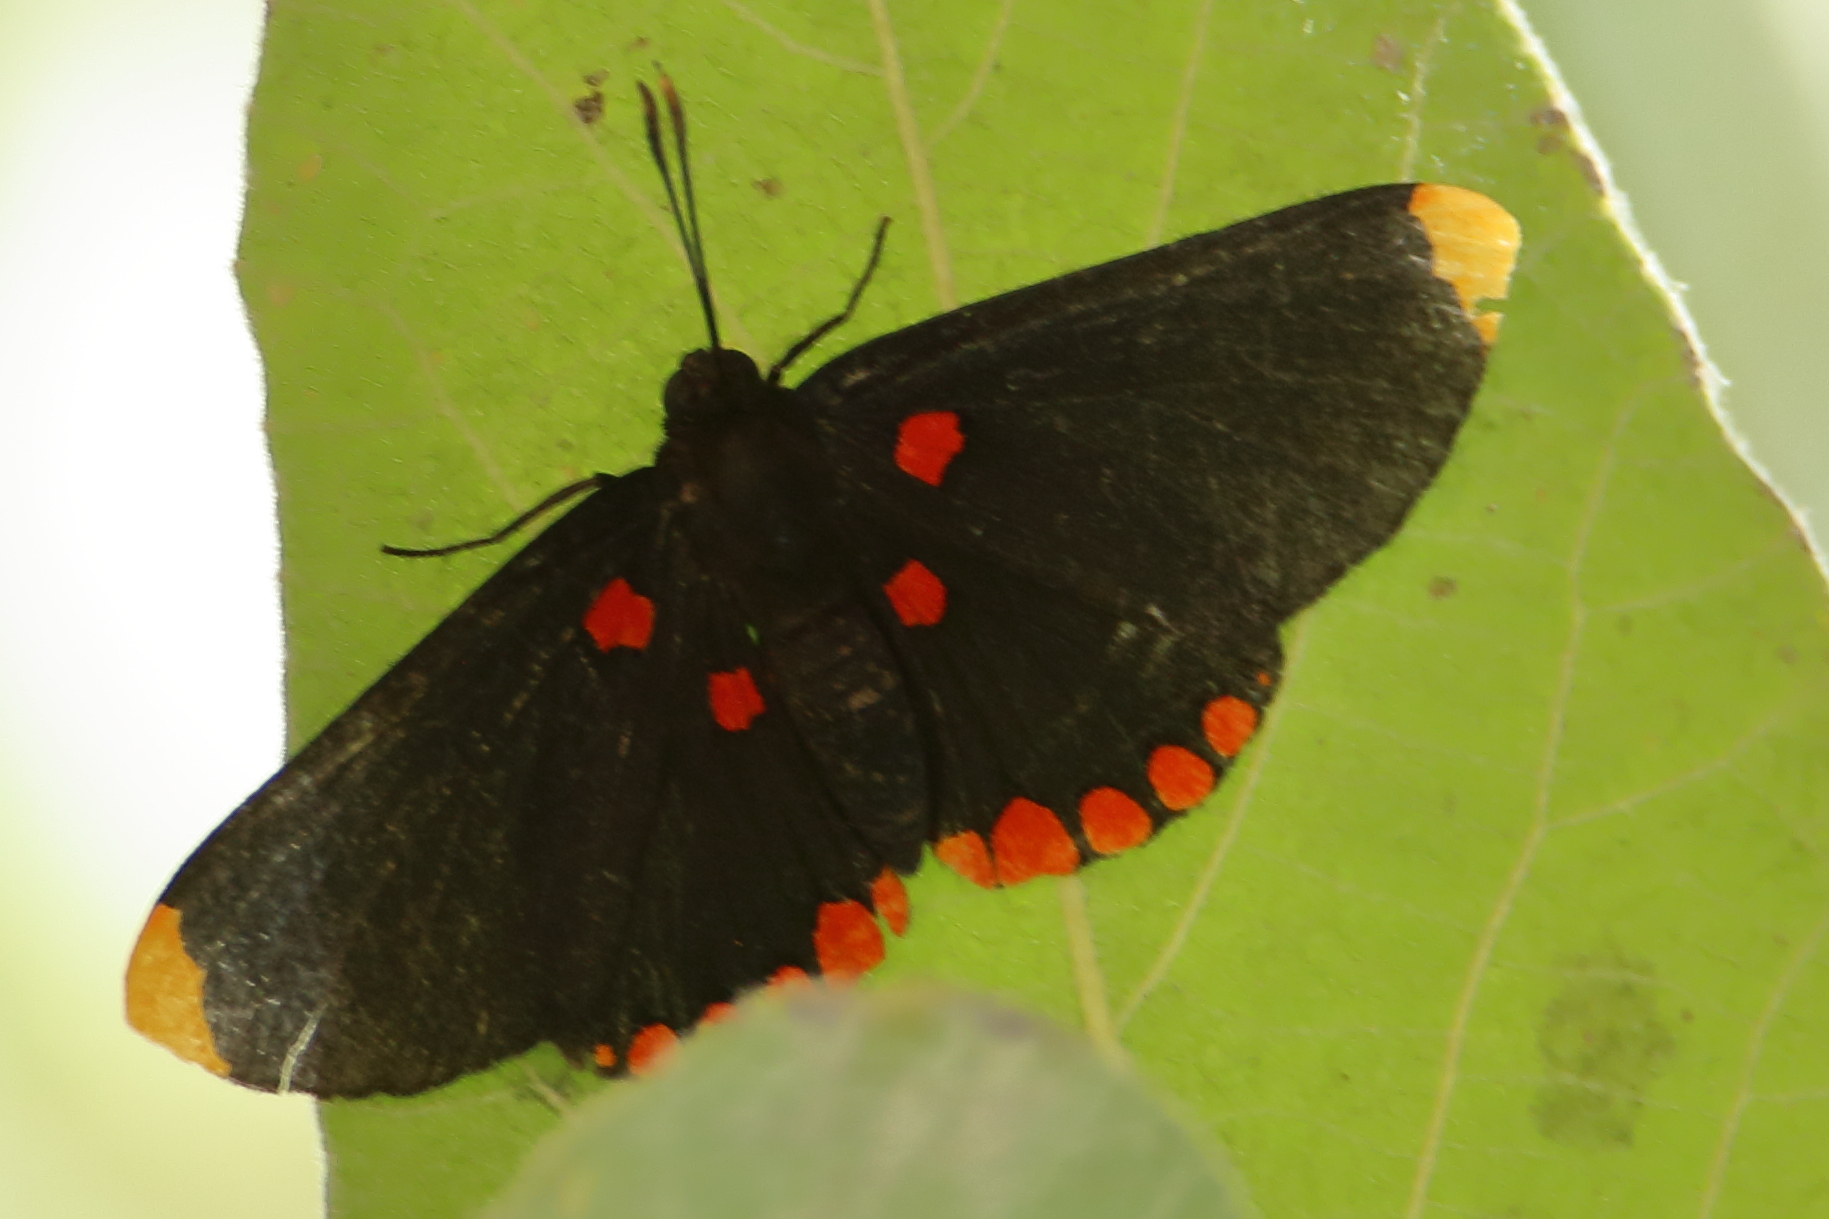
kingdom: Animalia
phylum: Arthropoda
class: Insecta
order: Lepidoptera
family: Lycaenidae
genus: Melanis
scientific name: Melanis pixe
